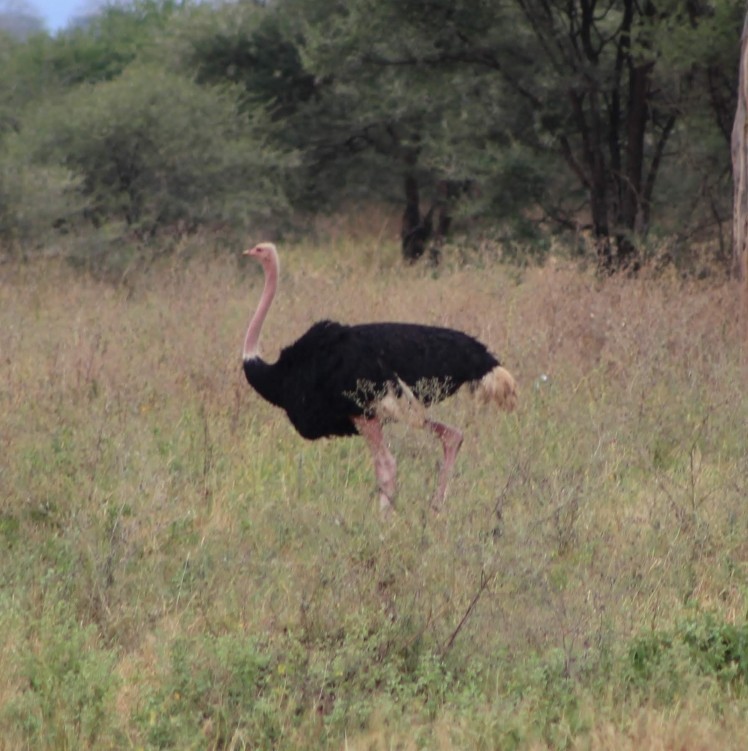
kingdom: Animalia
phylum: Chordata
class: Aves
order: Struthioniformes
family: Struthionidae
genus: Struthio
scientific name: Struthio camelus
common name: Common ostrich
